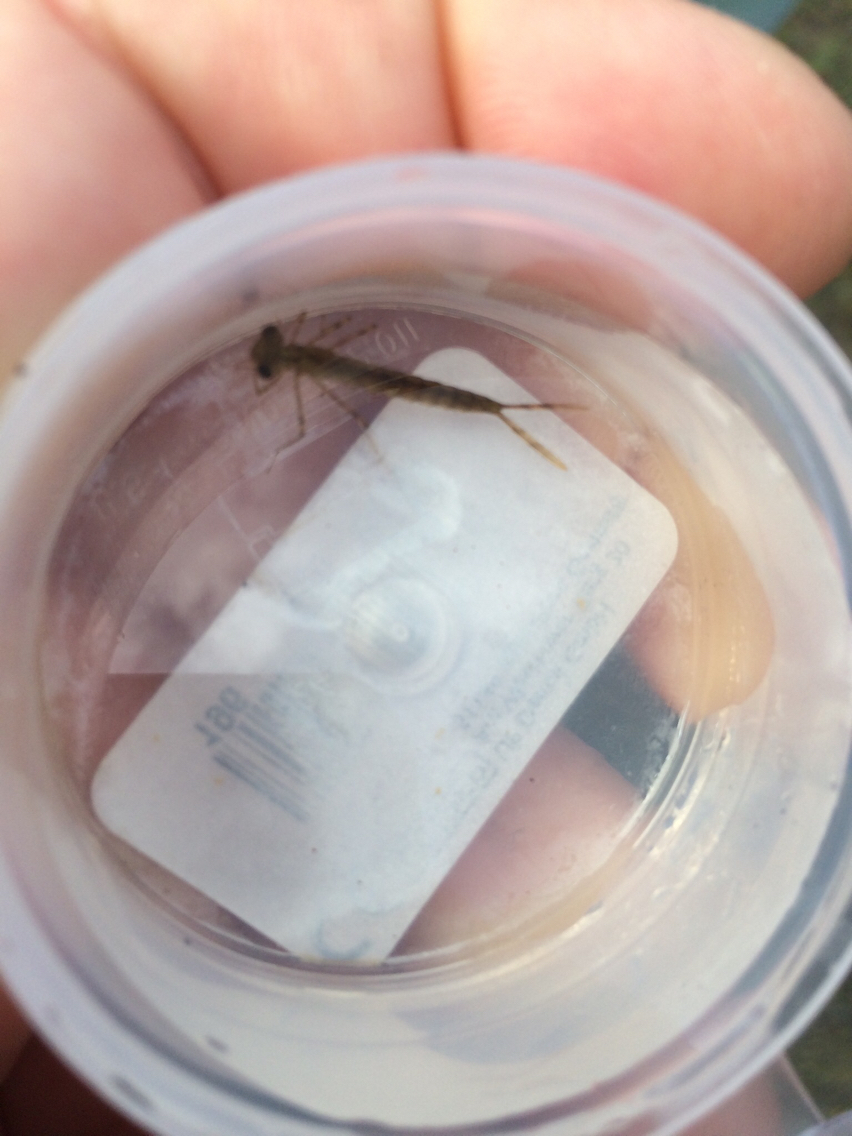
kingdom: Animalia
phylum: Arthropoda
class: Insecta
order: Odonata
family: Lestidae
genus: Austrolestes
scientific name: Austrolestes colensonis
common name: Blue damselfly
